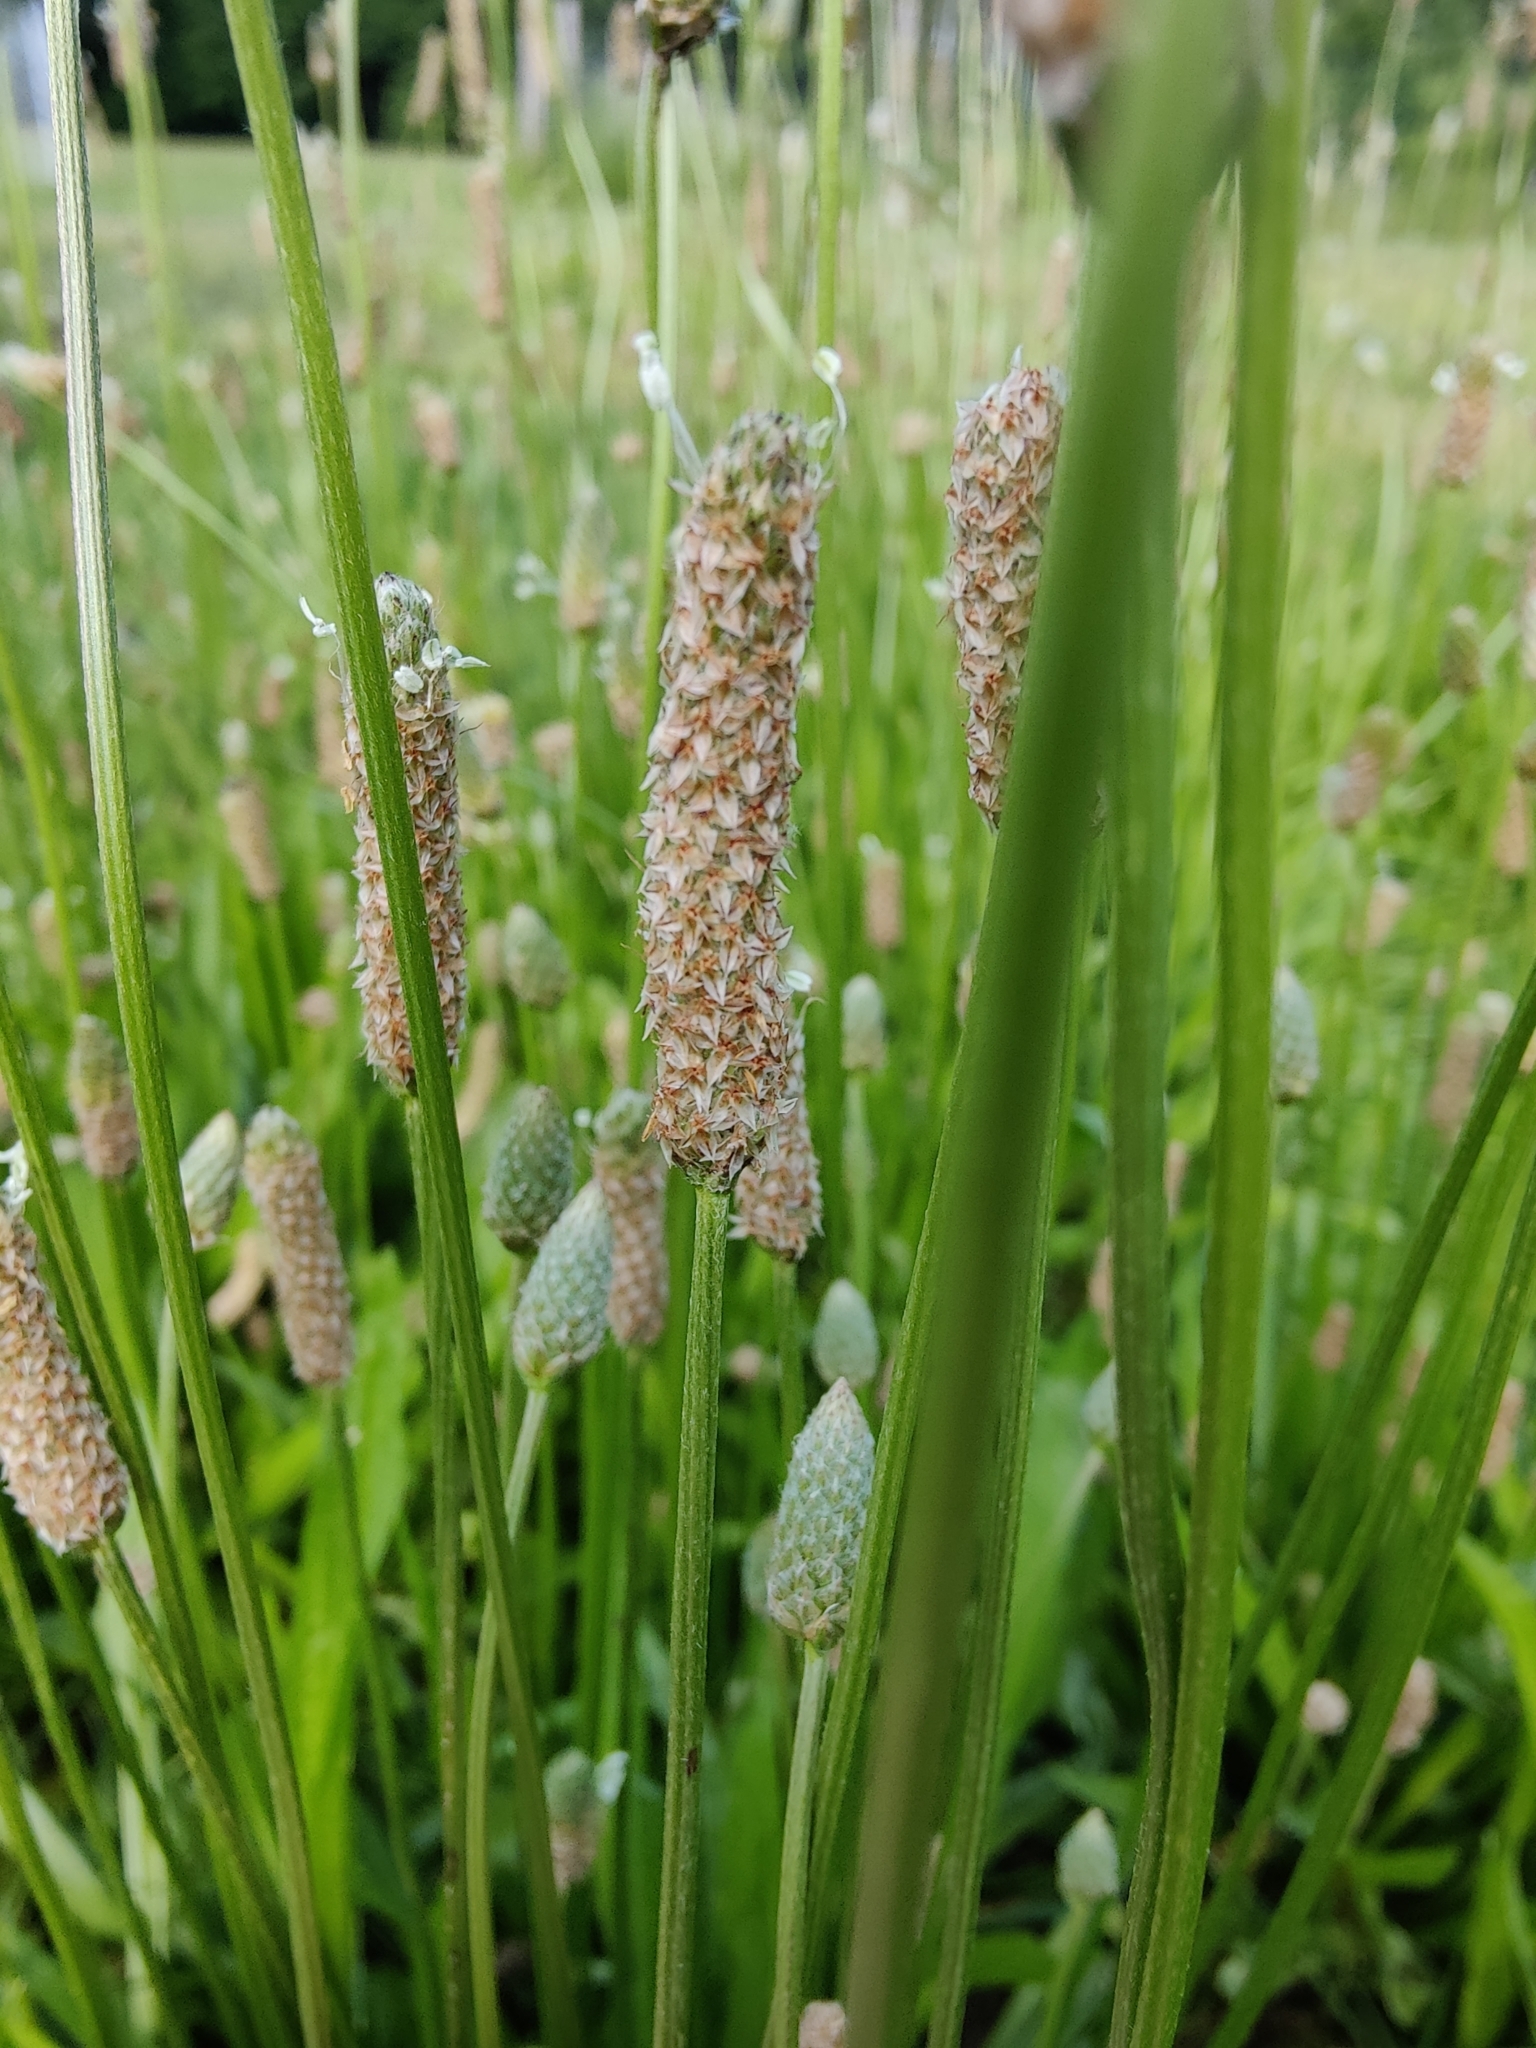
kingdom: Plantae
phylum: Tracheophyta
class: Magnoliopsida
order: Lamiales
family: Plantaginaceae
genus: Plantago
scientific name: Plantago lanceolata
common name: Ribwort plantain
